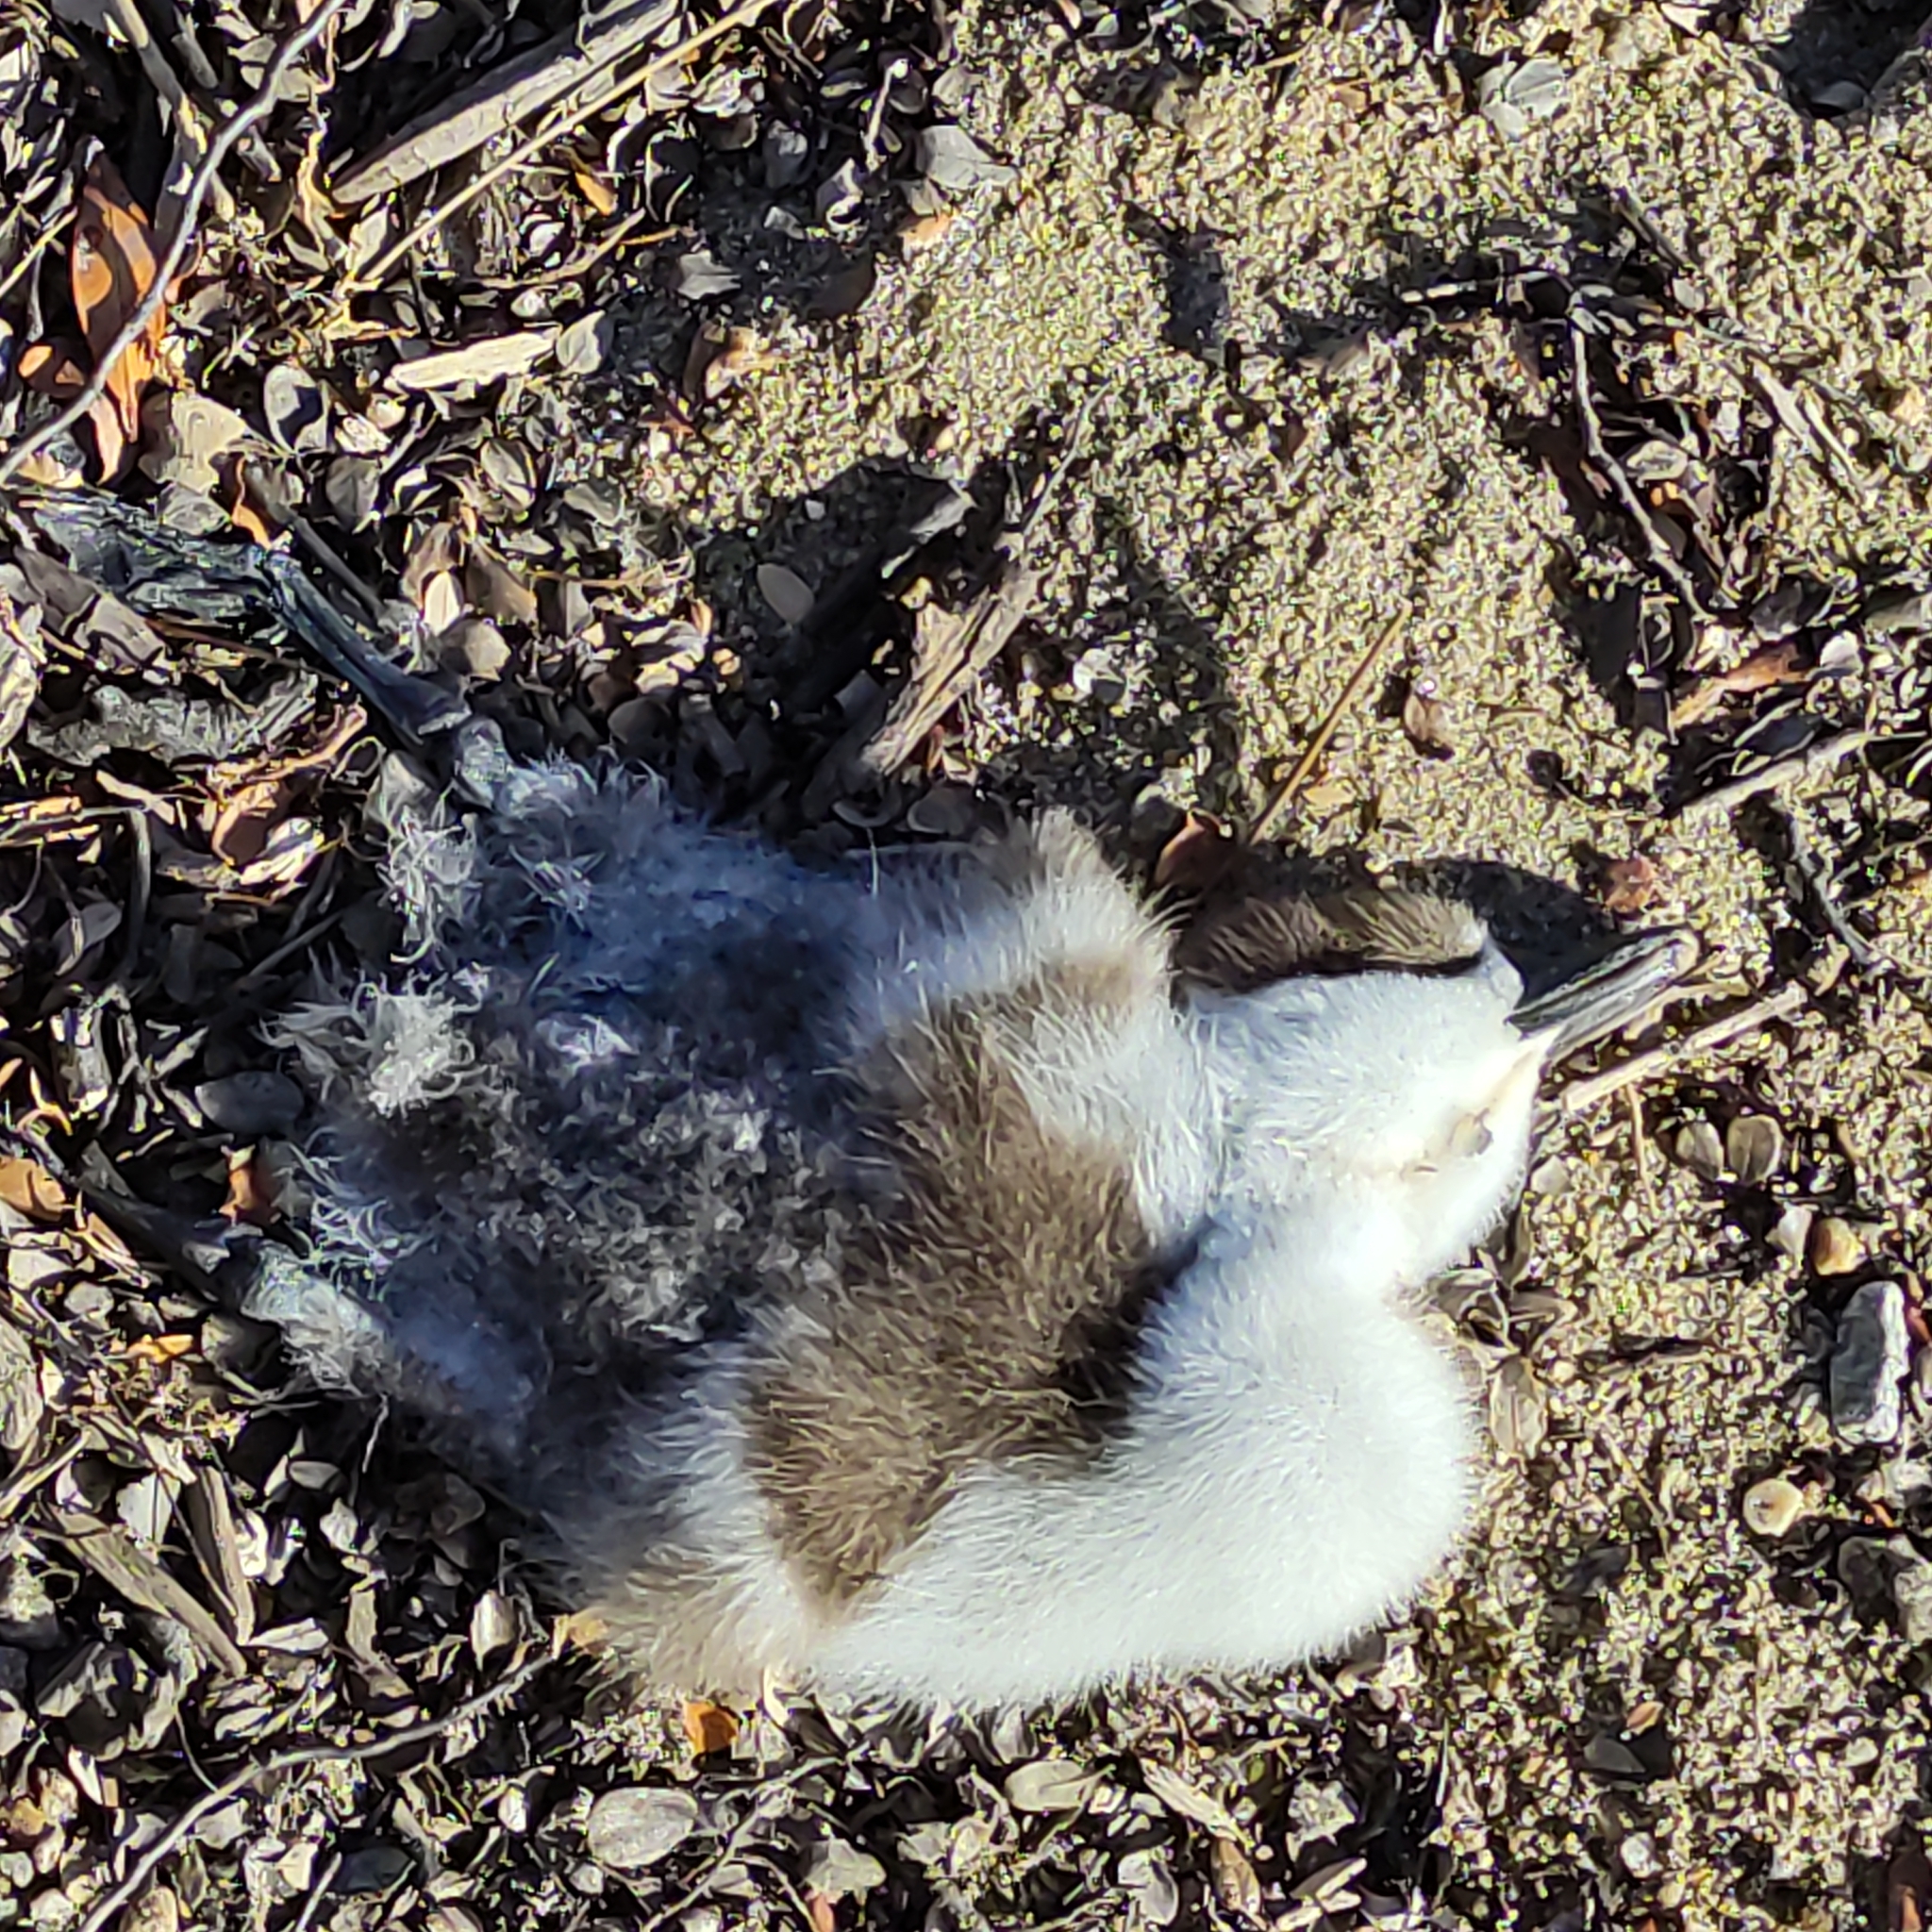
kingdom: Animalia
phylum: Chordata
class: Aves
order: Anseriformes
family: Anatidae
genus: Tadorna
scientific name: Tadorna variegata
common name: Paradise shelduck
